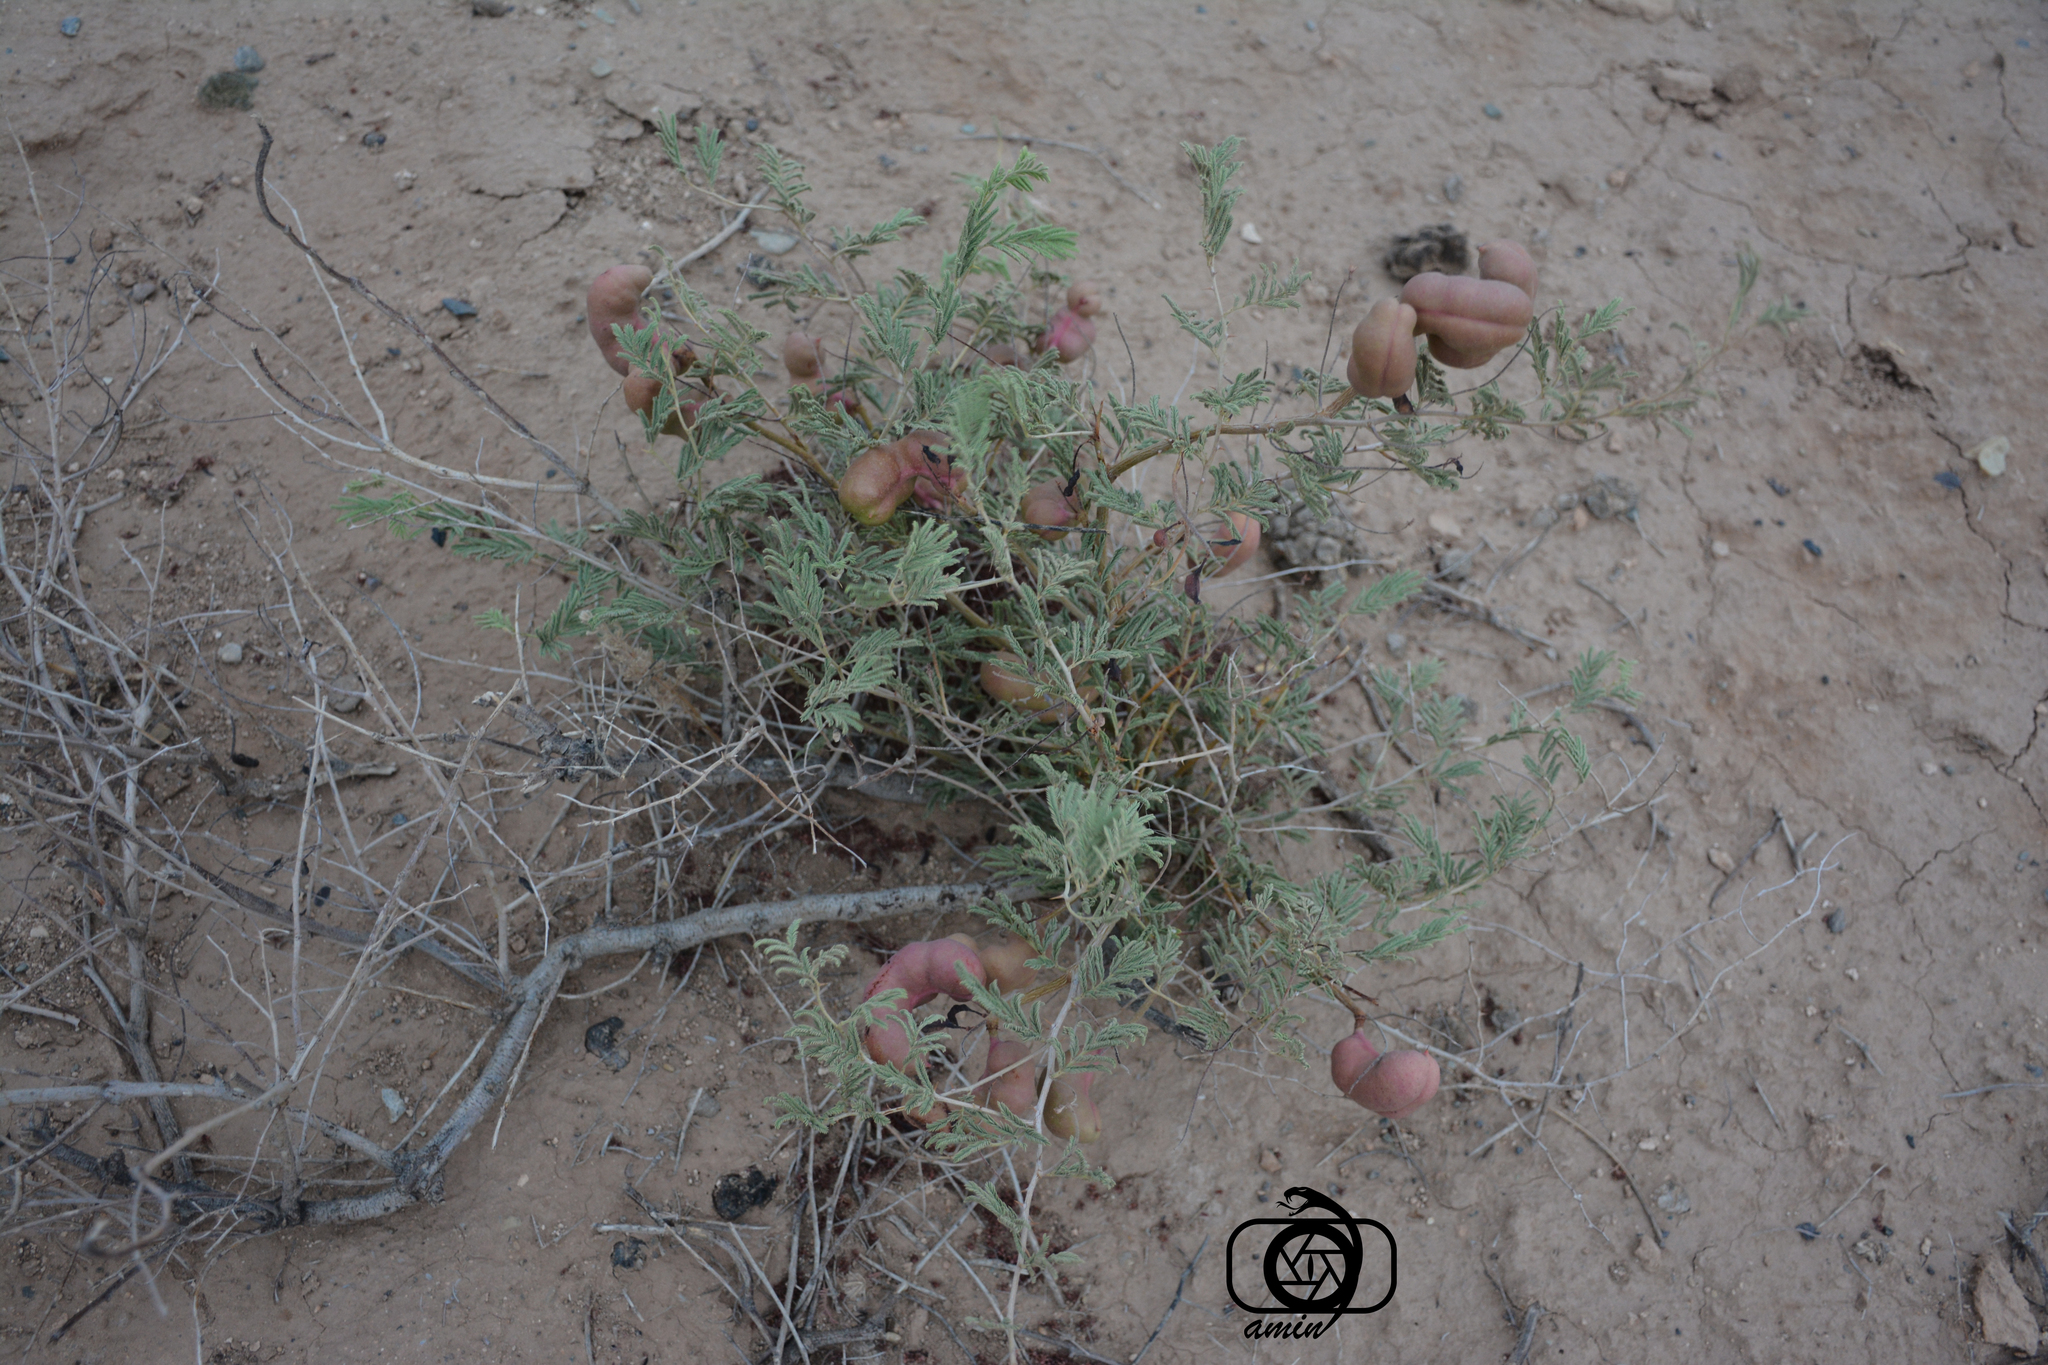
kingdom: Plantae
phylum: Tracheophyta
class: Magnoliopsida
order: Fabales
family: Fabaceae
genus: Prosopis
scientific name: Prosopis farcta
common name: Syrian mesquite
